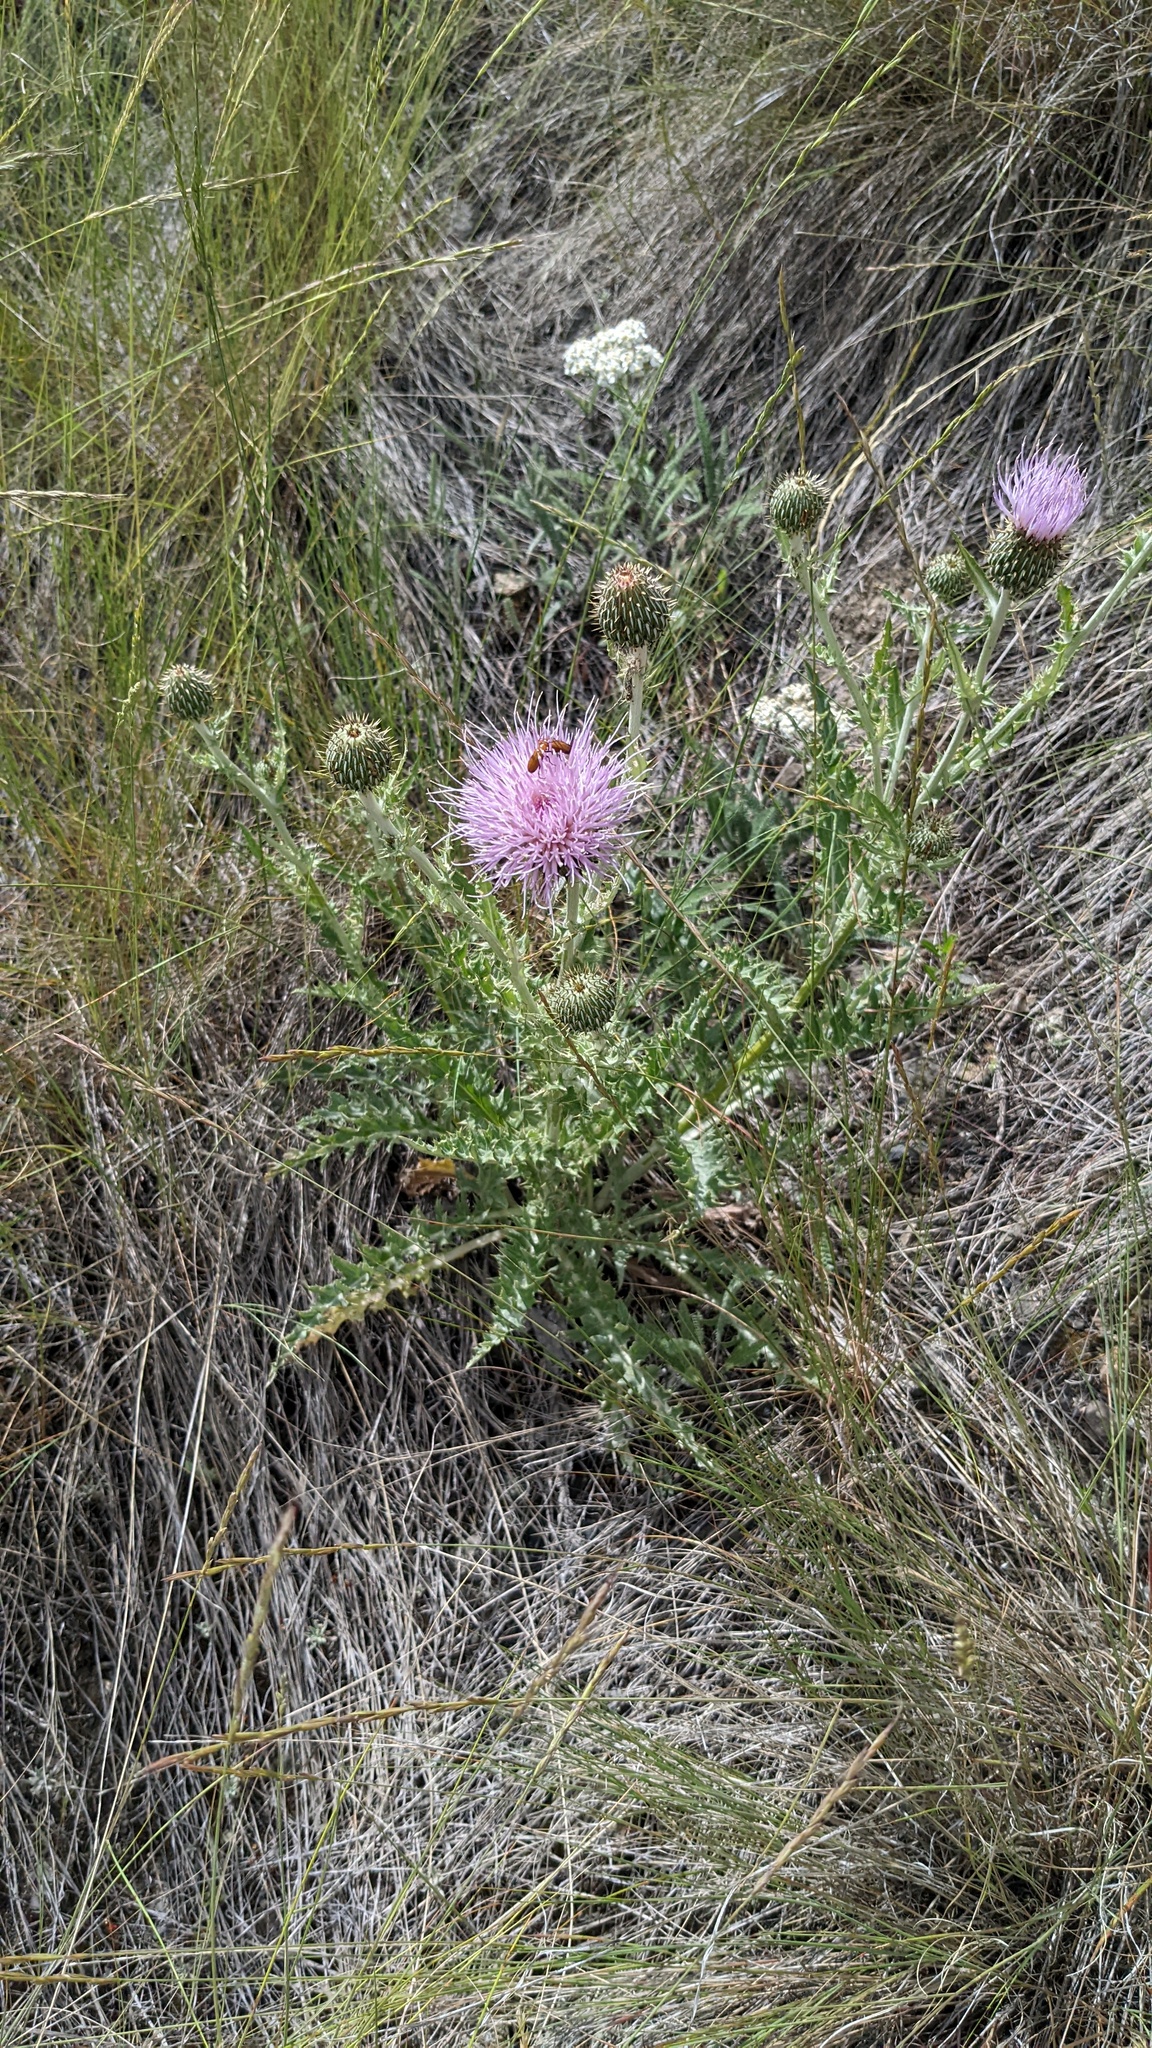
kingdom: Plantae
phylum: Tracheophyta
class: Magnoliopsida
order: Asterales
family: Asteraceae
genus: Cirsium
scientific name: Cirsium undulatum
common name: Pasture thistle
